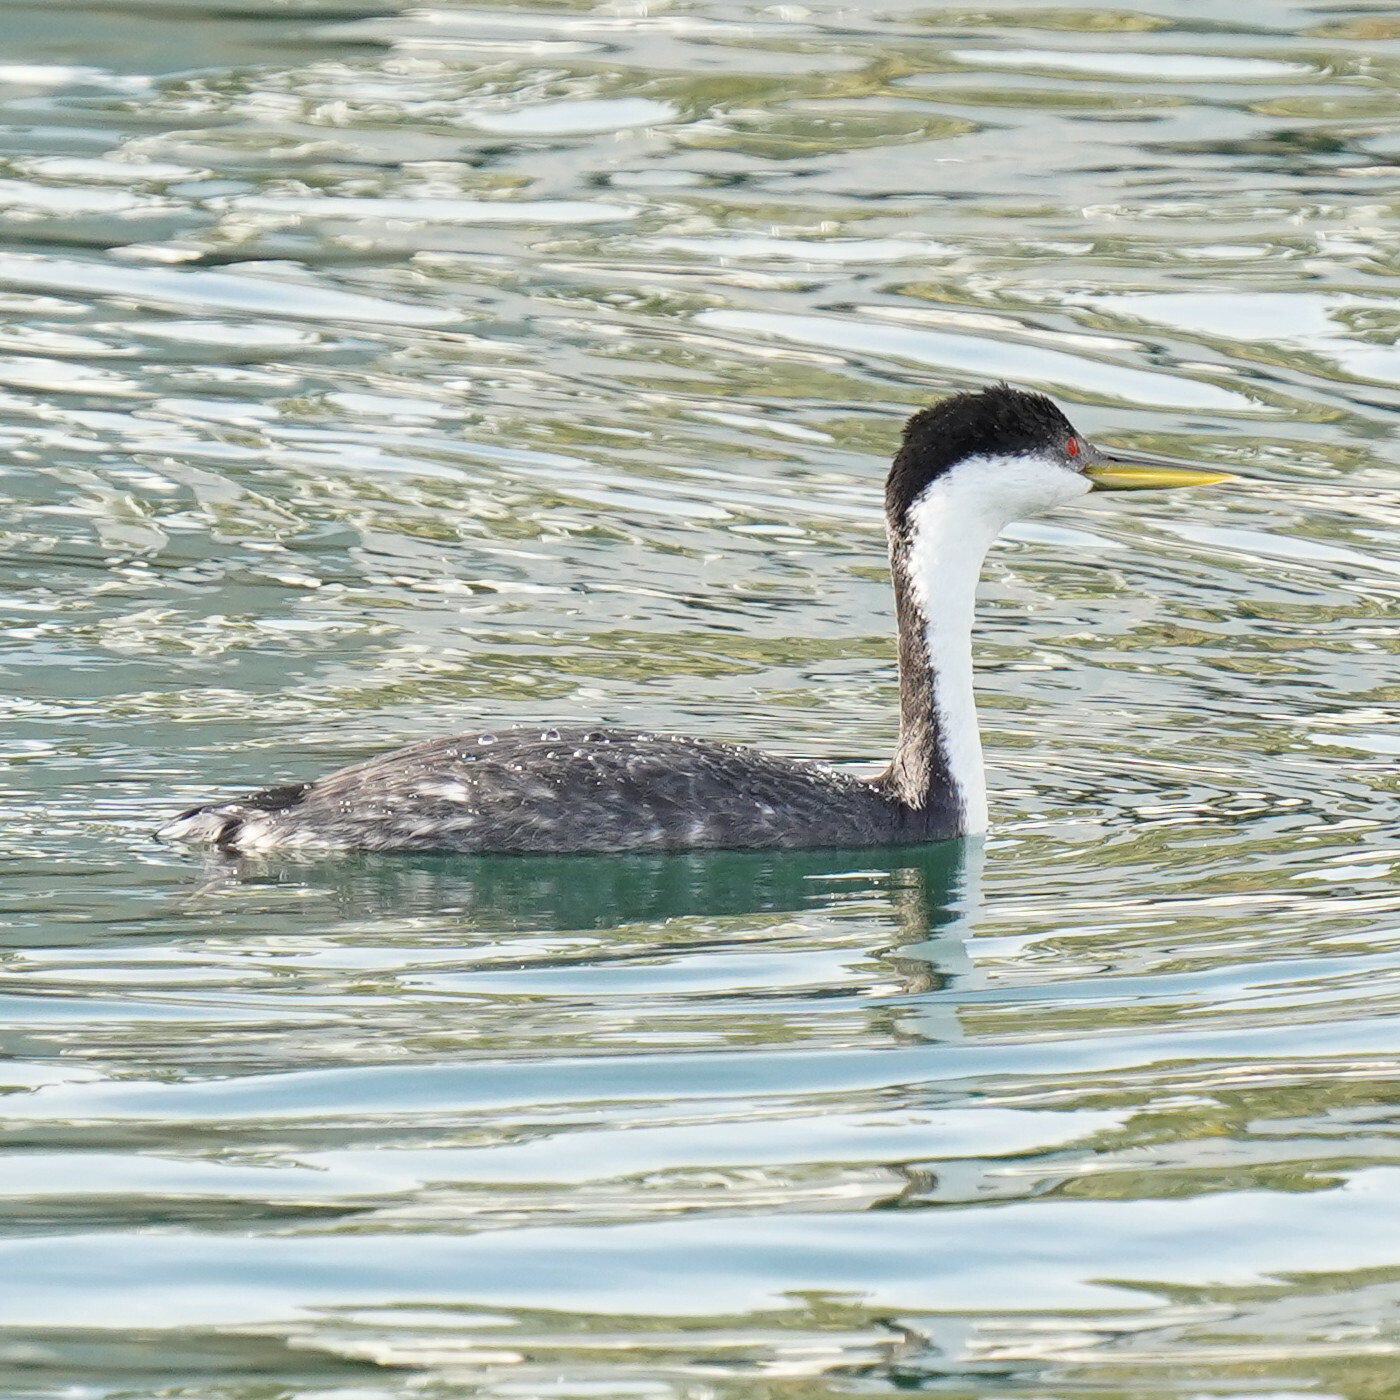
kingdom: Animalia
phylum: Chordata
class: Aves
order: Podicipediformes
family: Podicipedidae
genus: Aechmophorus
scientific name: Aechmophorus occidentalis
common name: Western grebe
